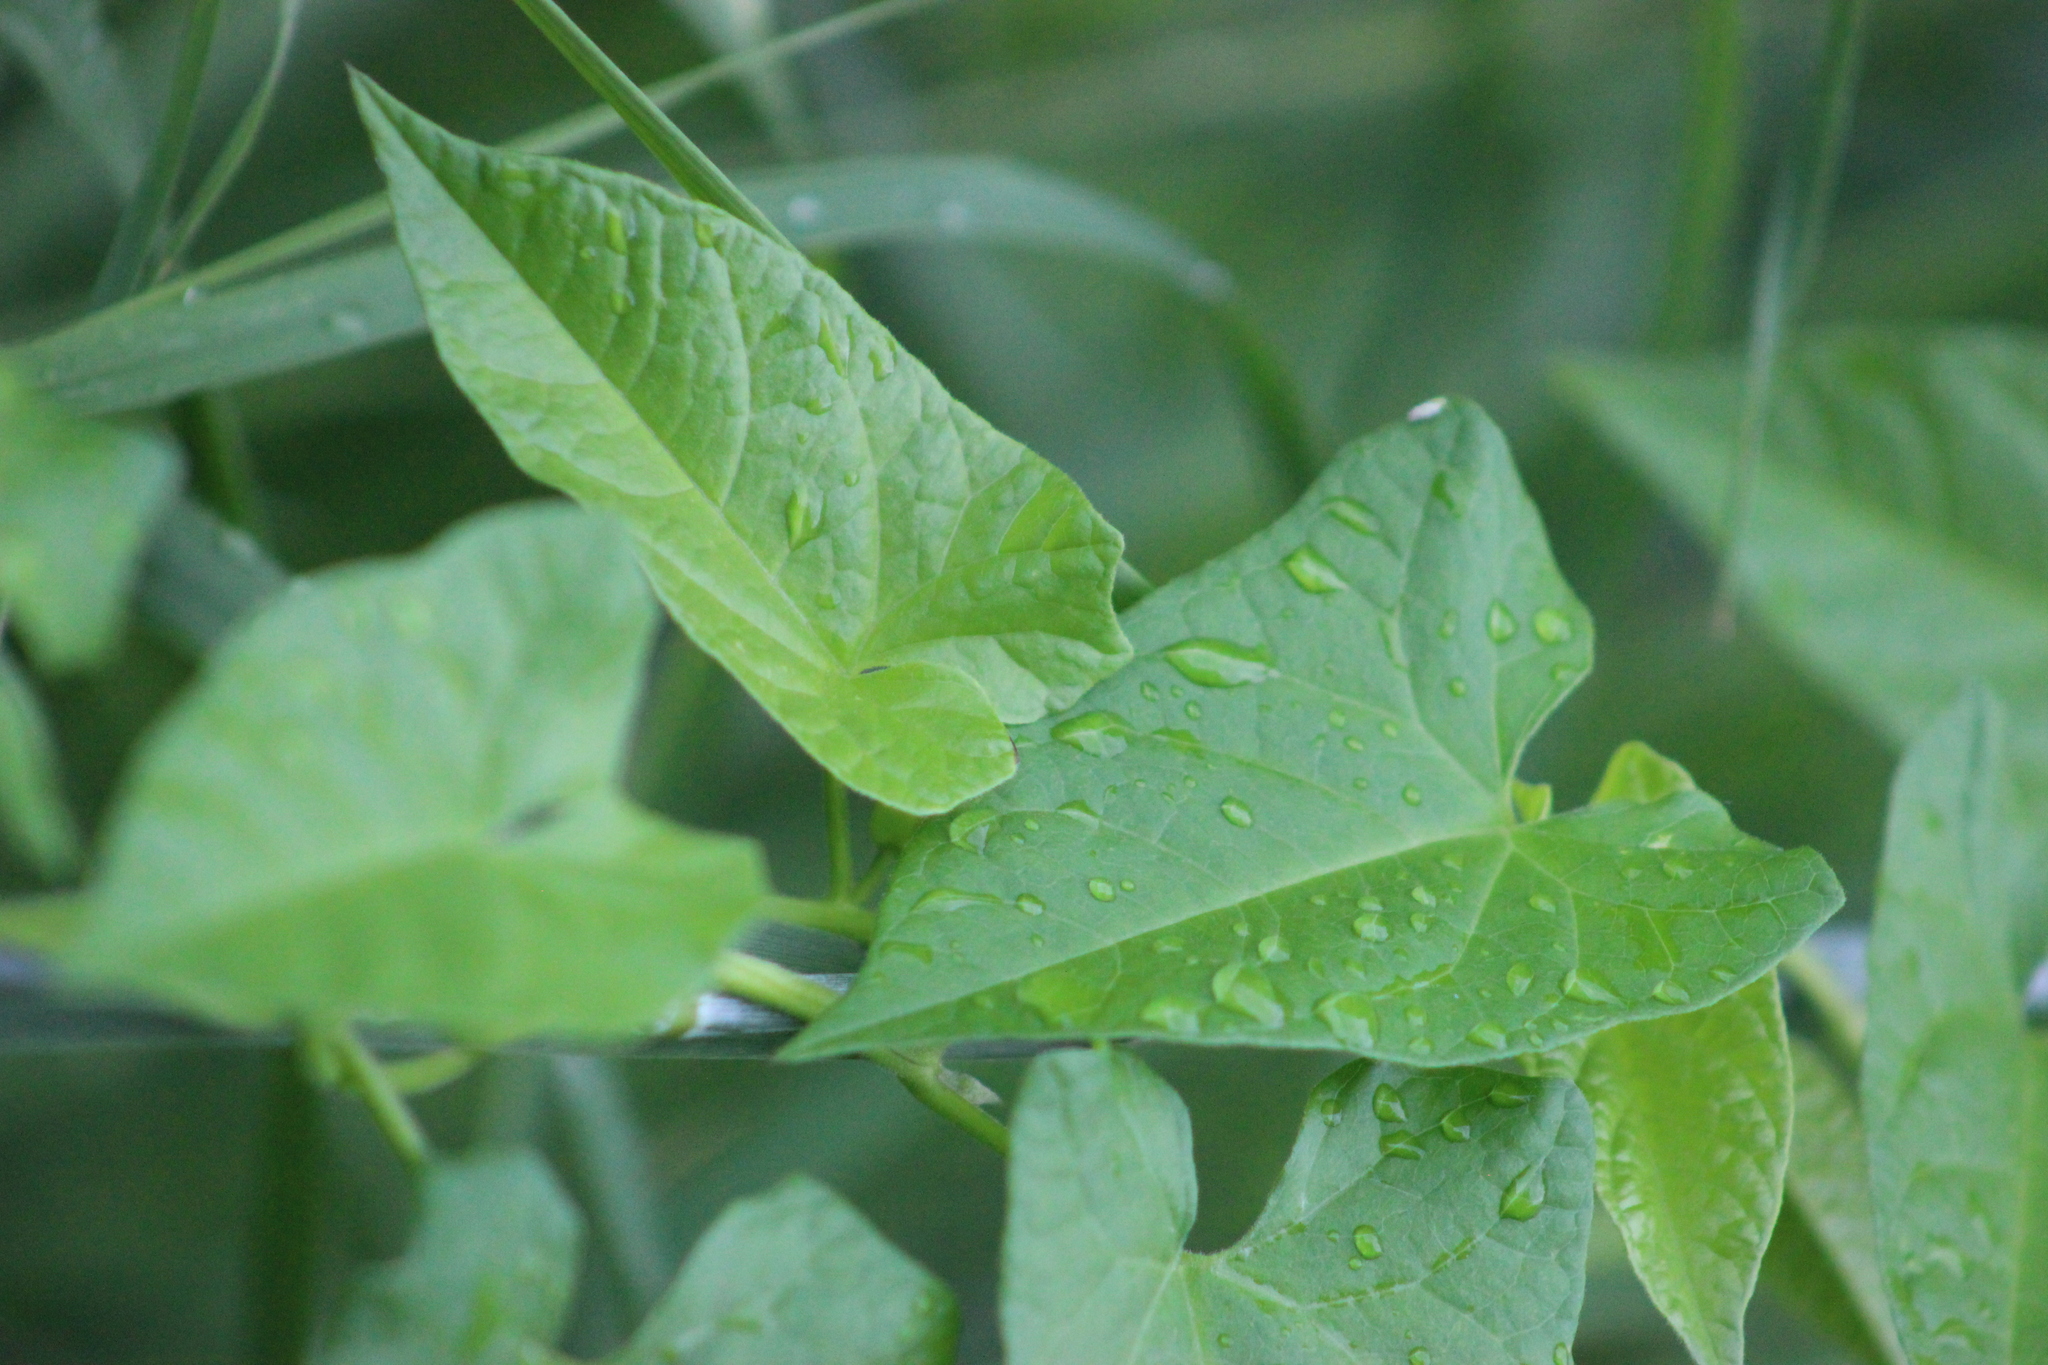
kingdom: Plantae
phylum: Tracheophyta
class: Magnoliopsida
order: Solanales
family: Convolvulaceae
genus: Calystegia
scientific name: Calystegia sepium
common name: Hedge bindweed
